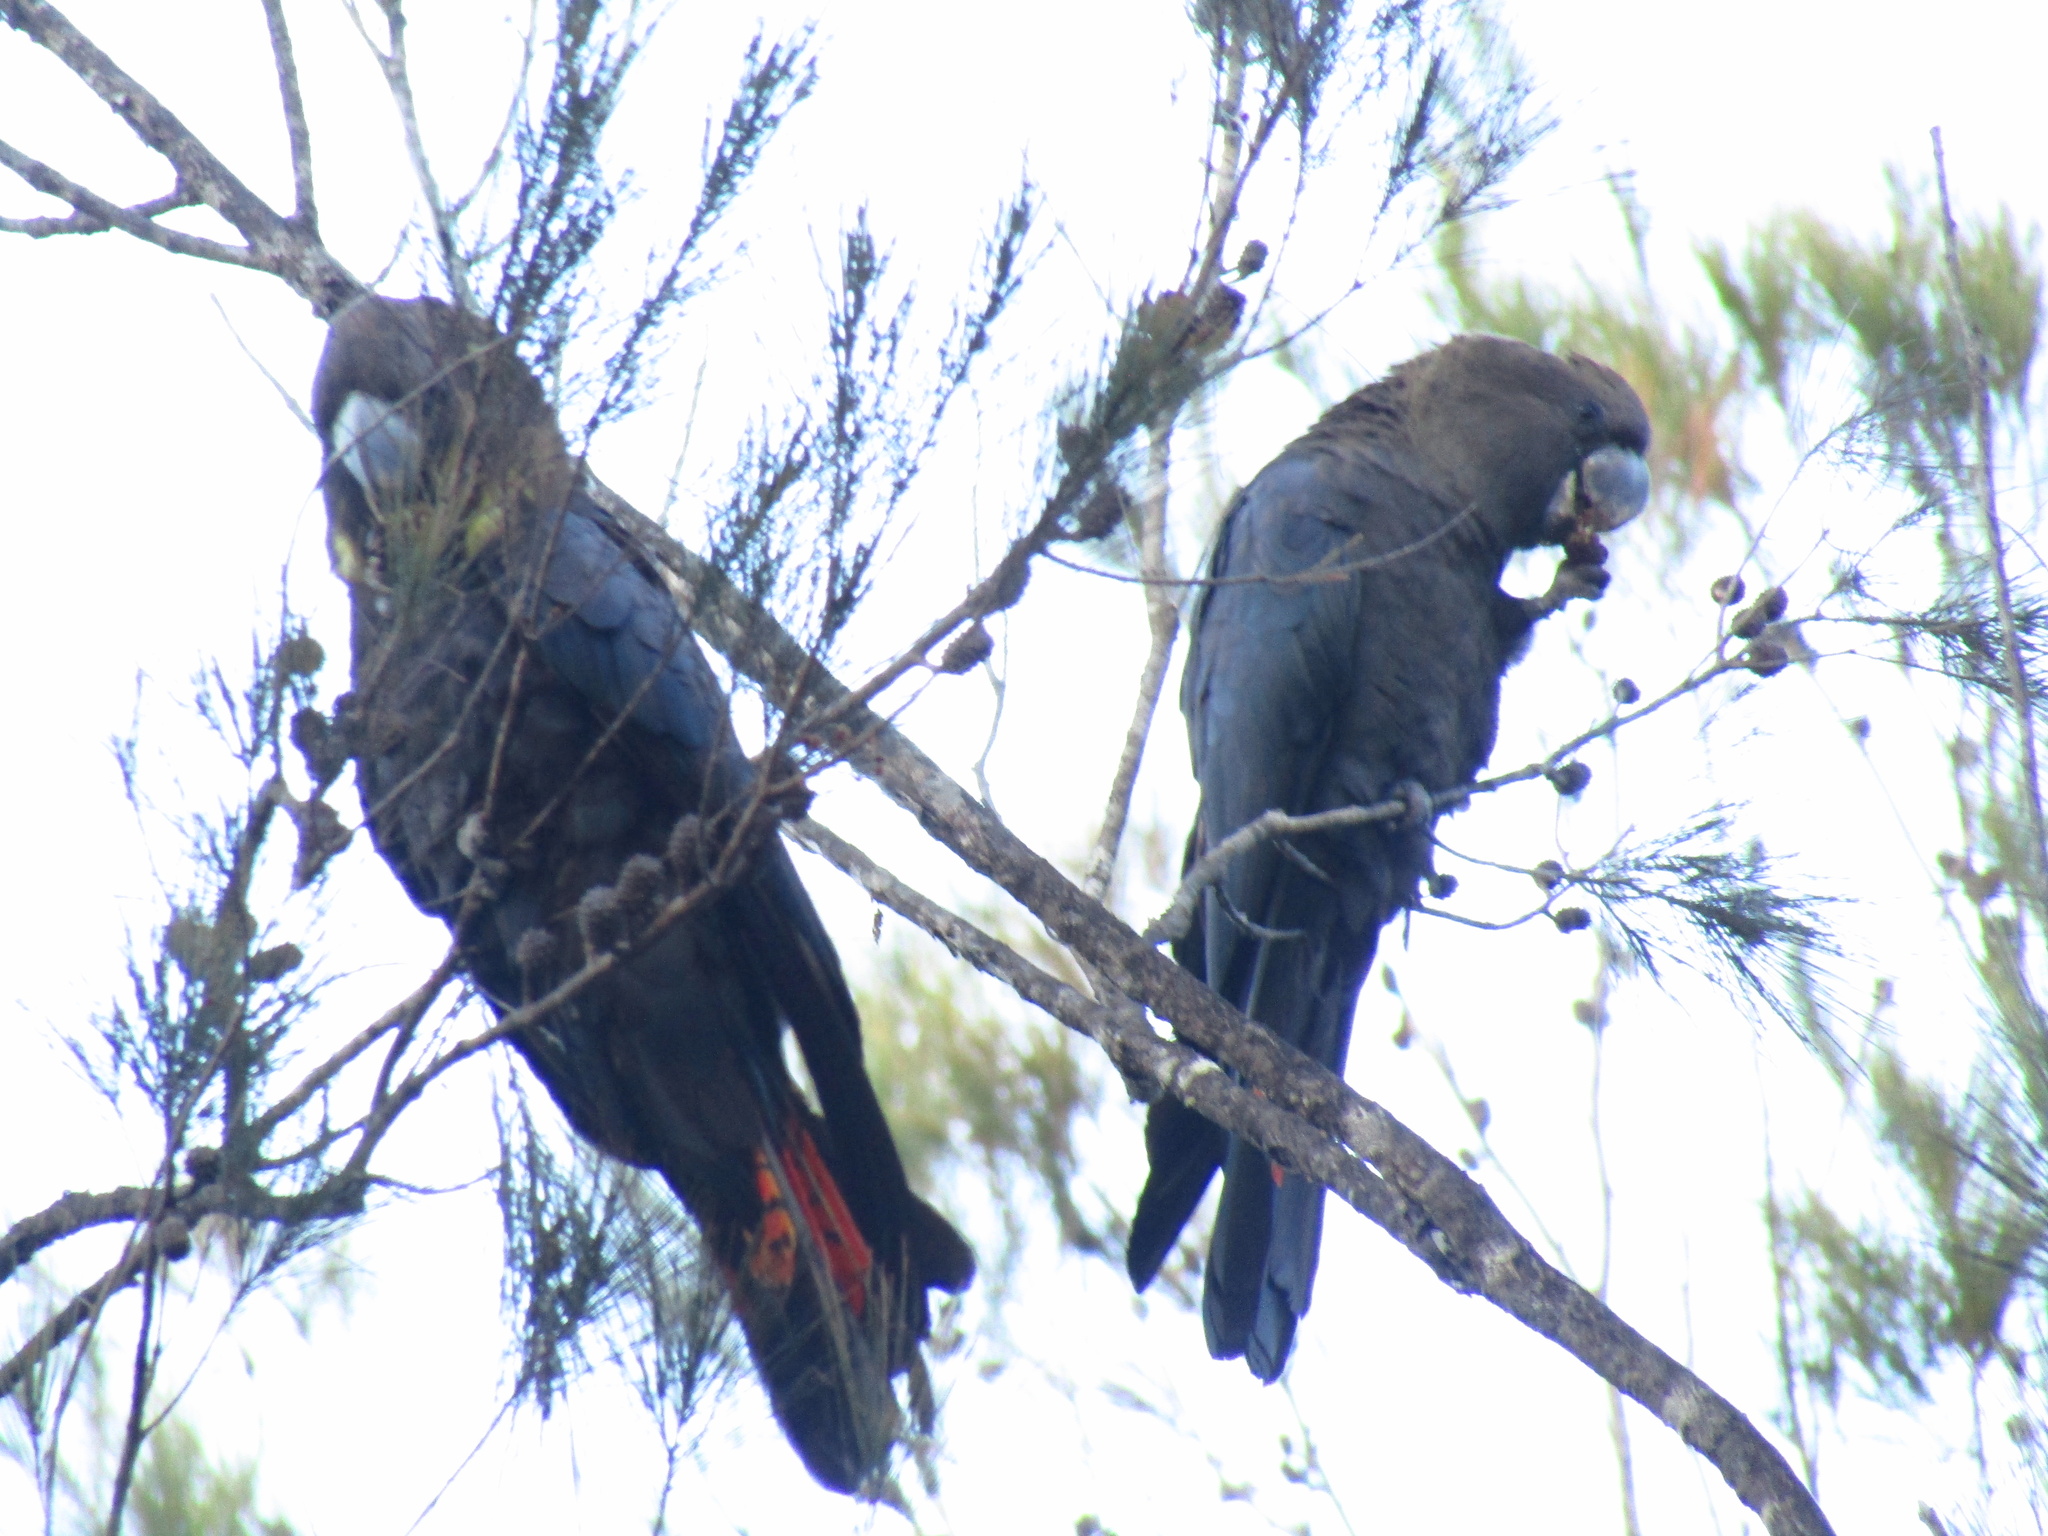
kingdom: Animalia
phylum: Chordata
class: Aves
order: Psittaciformes
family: Psittacidae
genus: Calyptorhynchus
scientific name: Calyptorhynchus lathami
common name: Glossy black cockatoo
